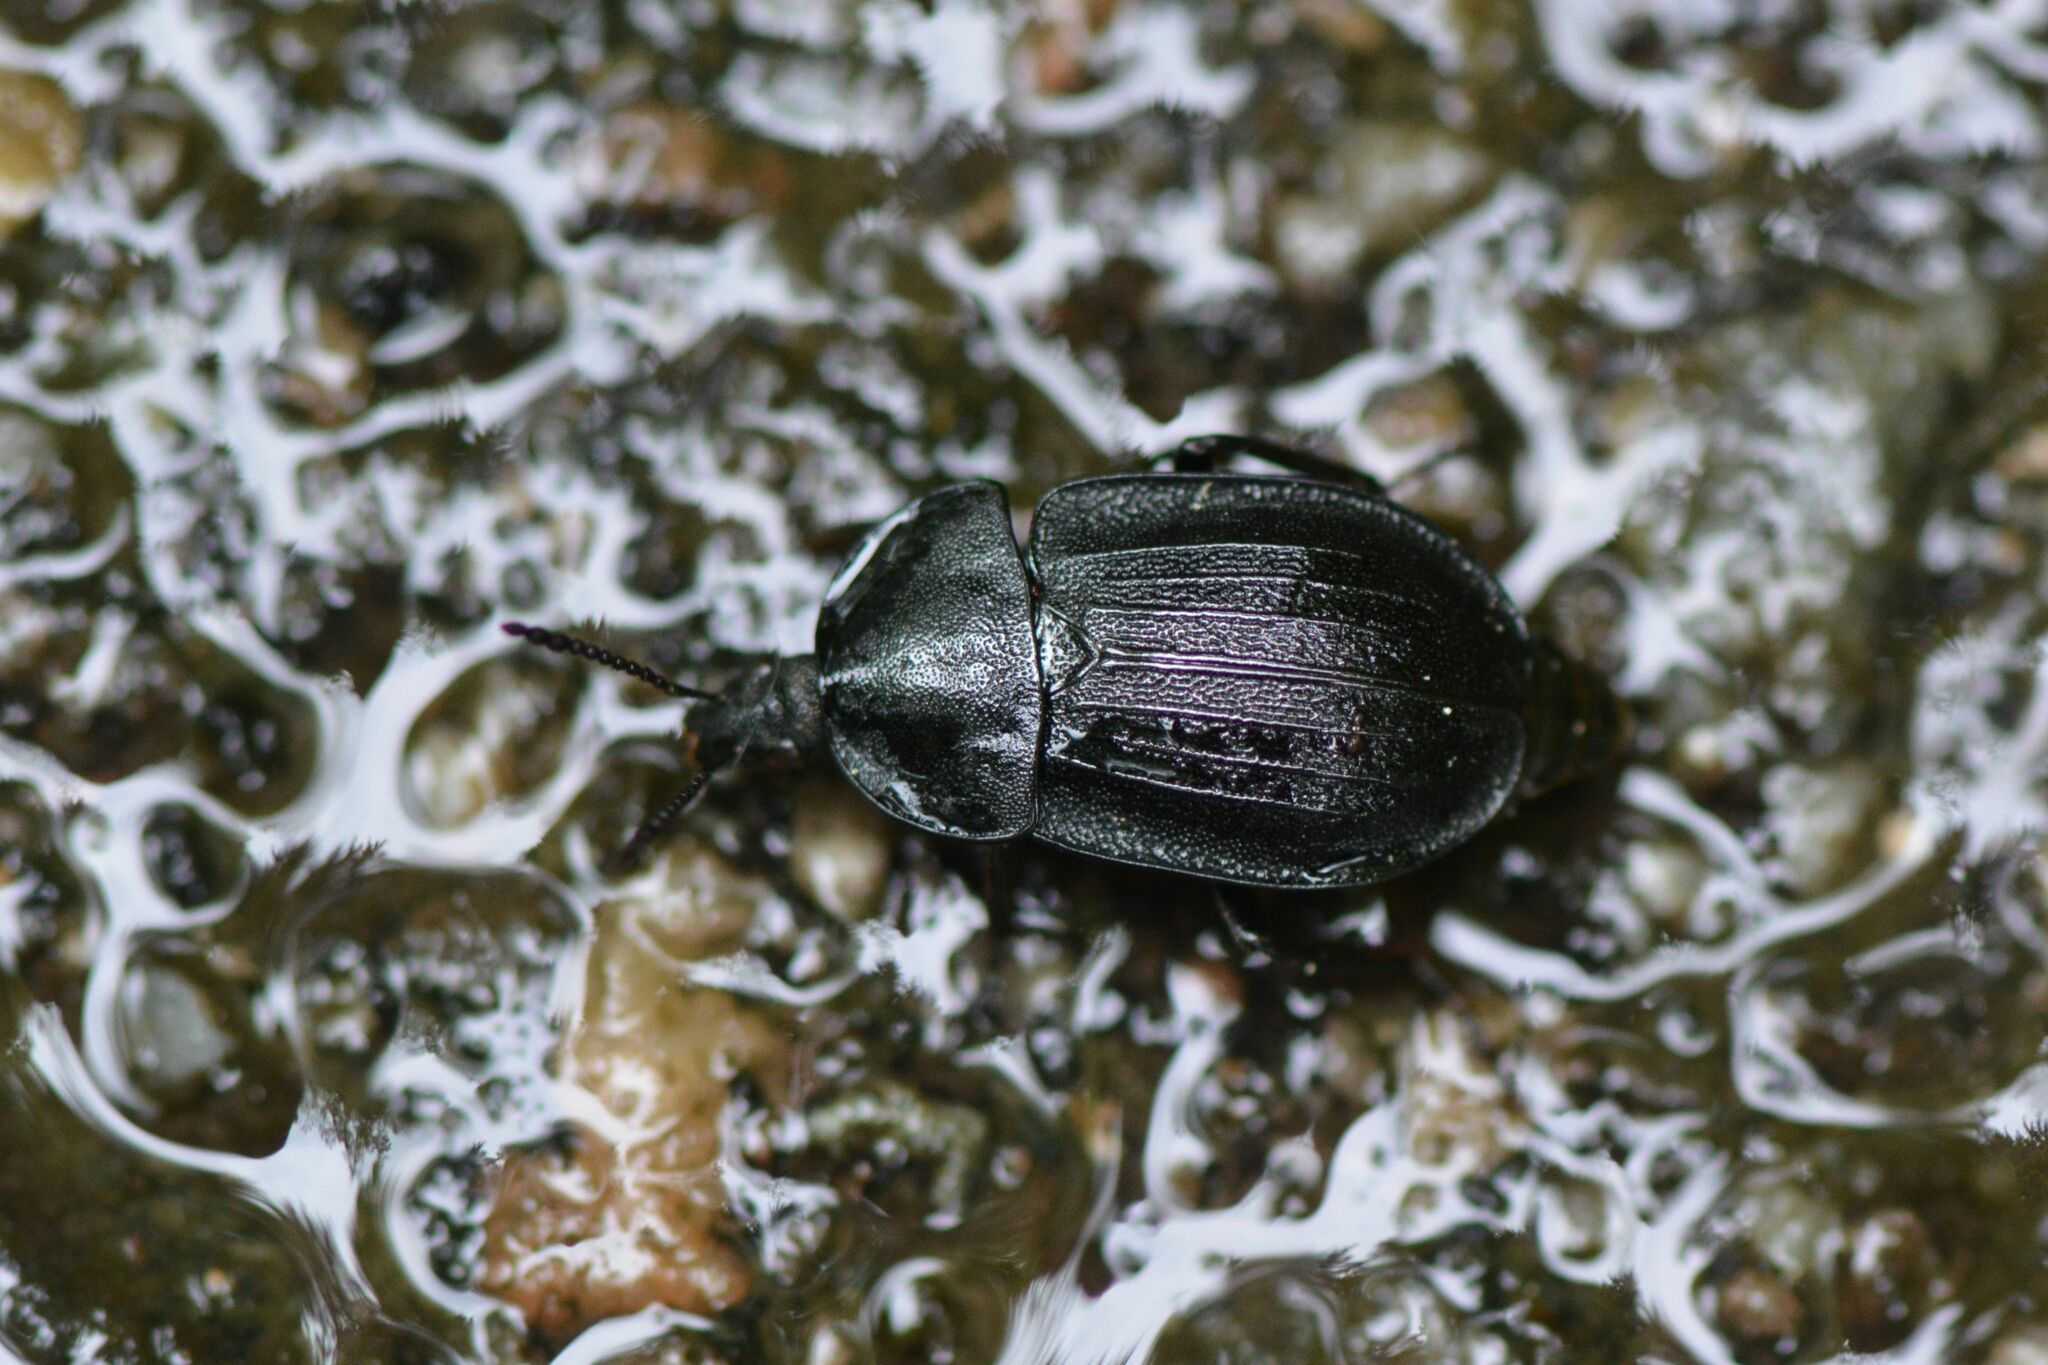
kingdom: Animalia
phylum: Arthropoda
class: Insecta
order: Coleoptera
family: Staphylinidae
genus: Silpha
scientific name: Silpha atrata
